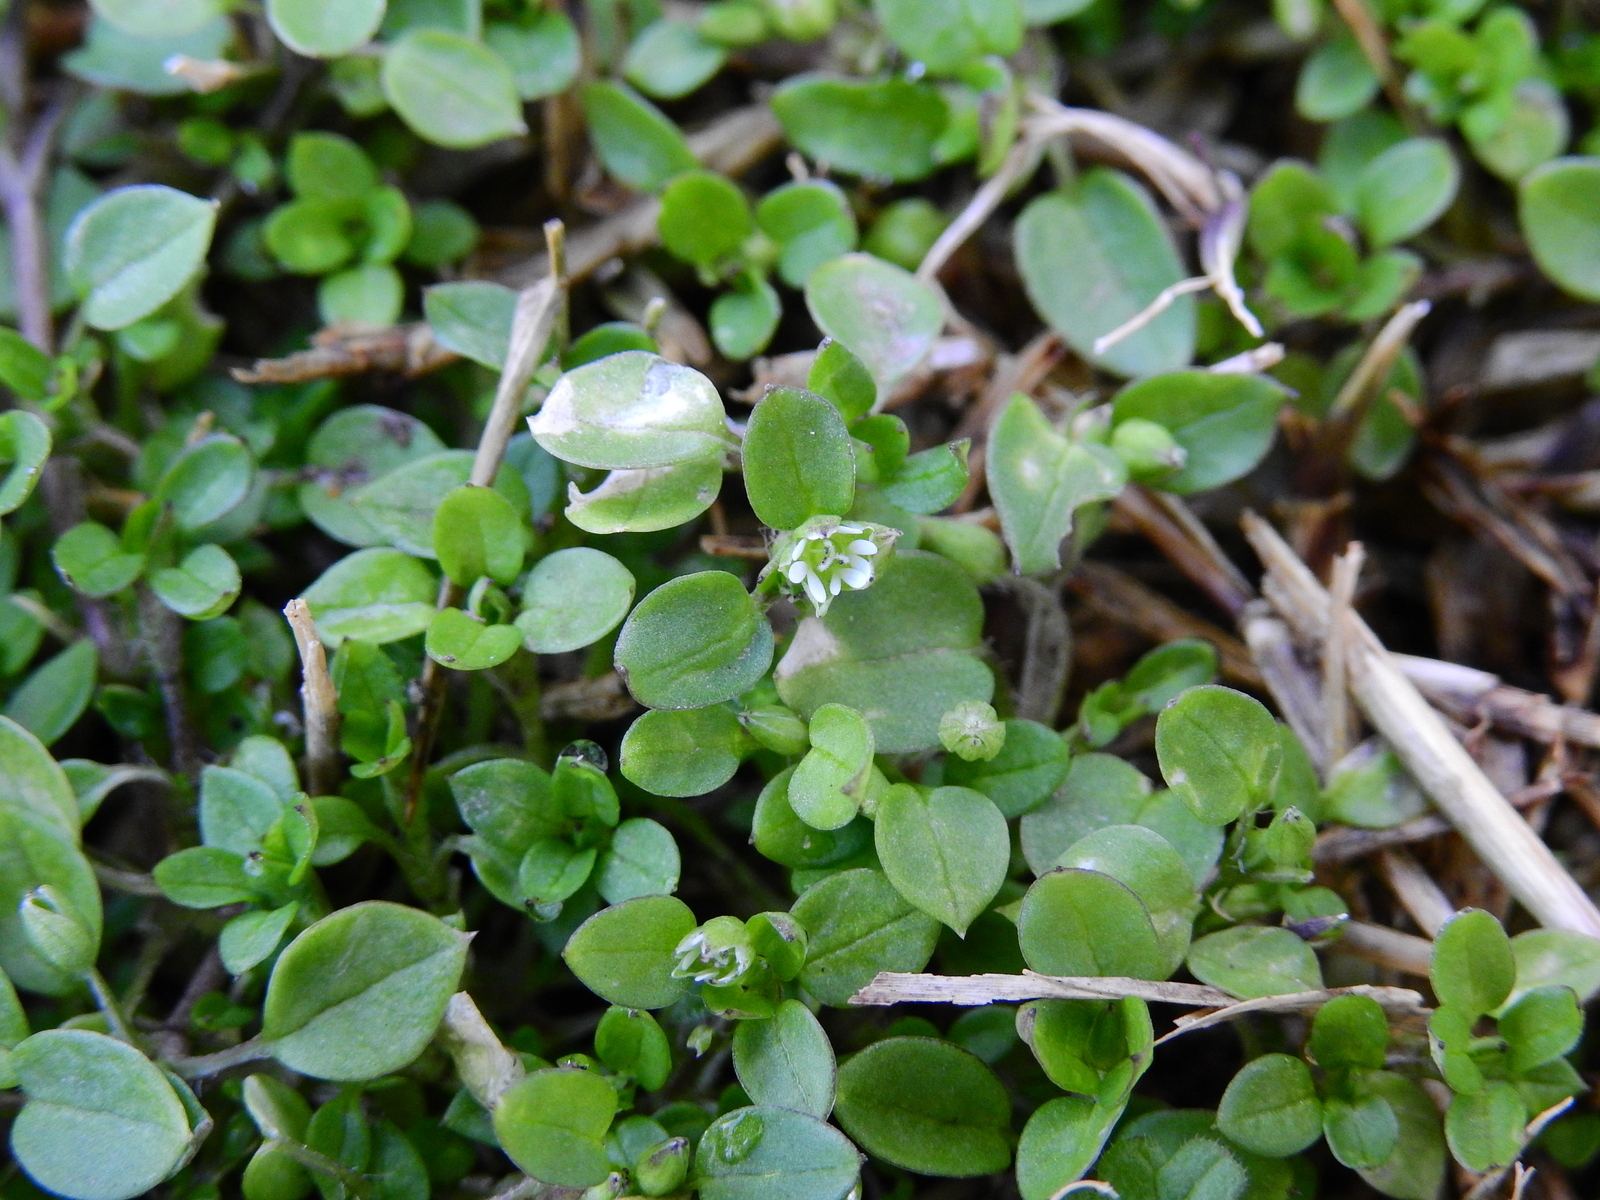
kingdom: Plantae
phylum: Tracheophyta
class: Magnoliopsida
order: Caryophyllales
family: Caryophyllaceae
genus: Stellaria
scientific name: Stellaria media
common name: Common chickweed
